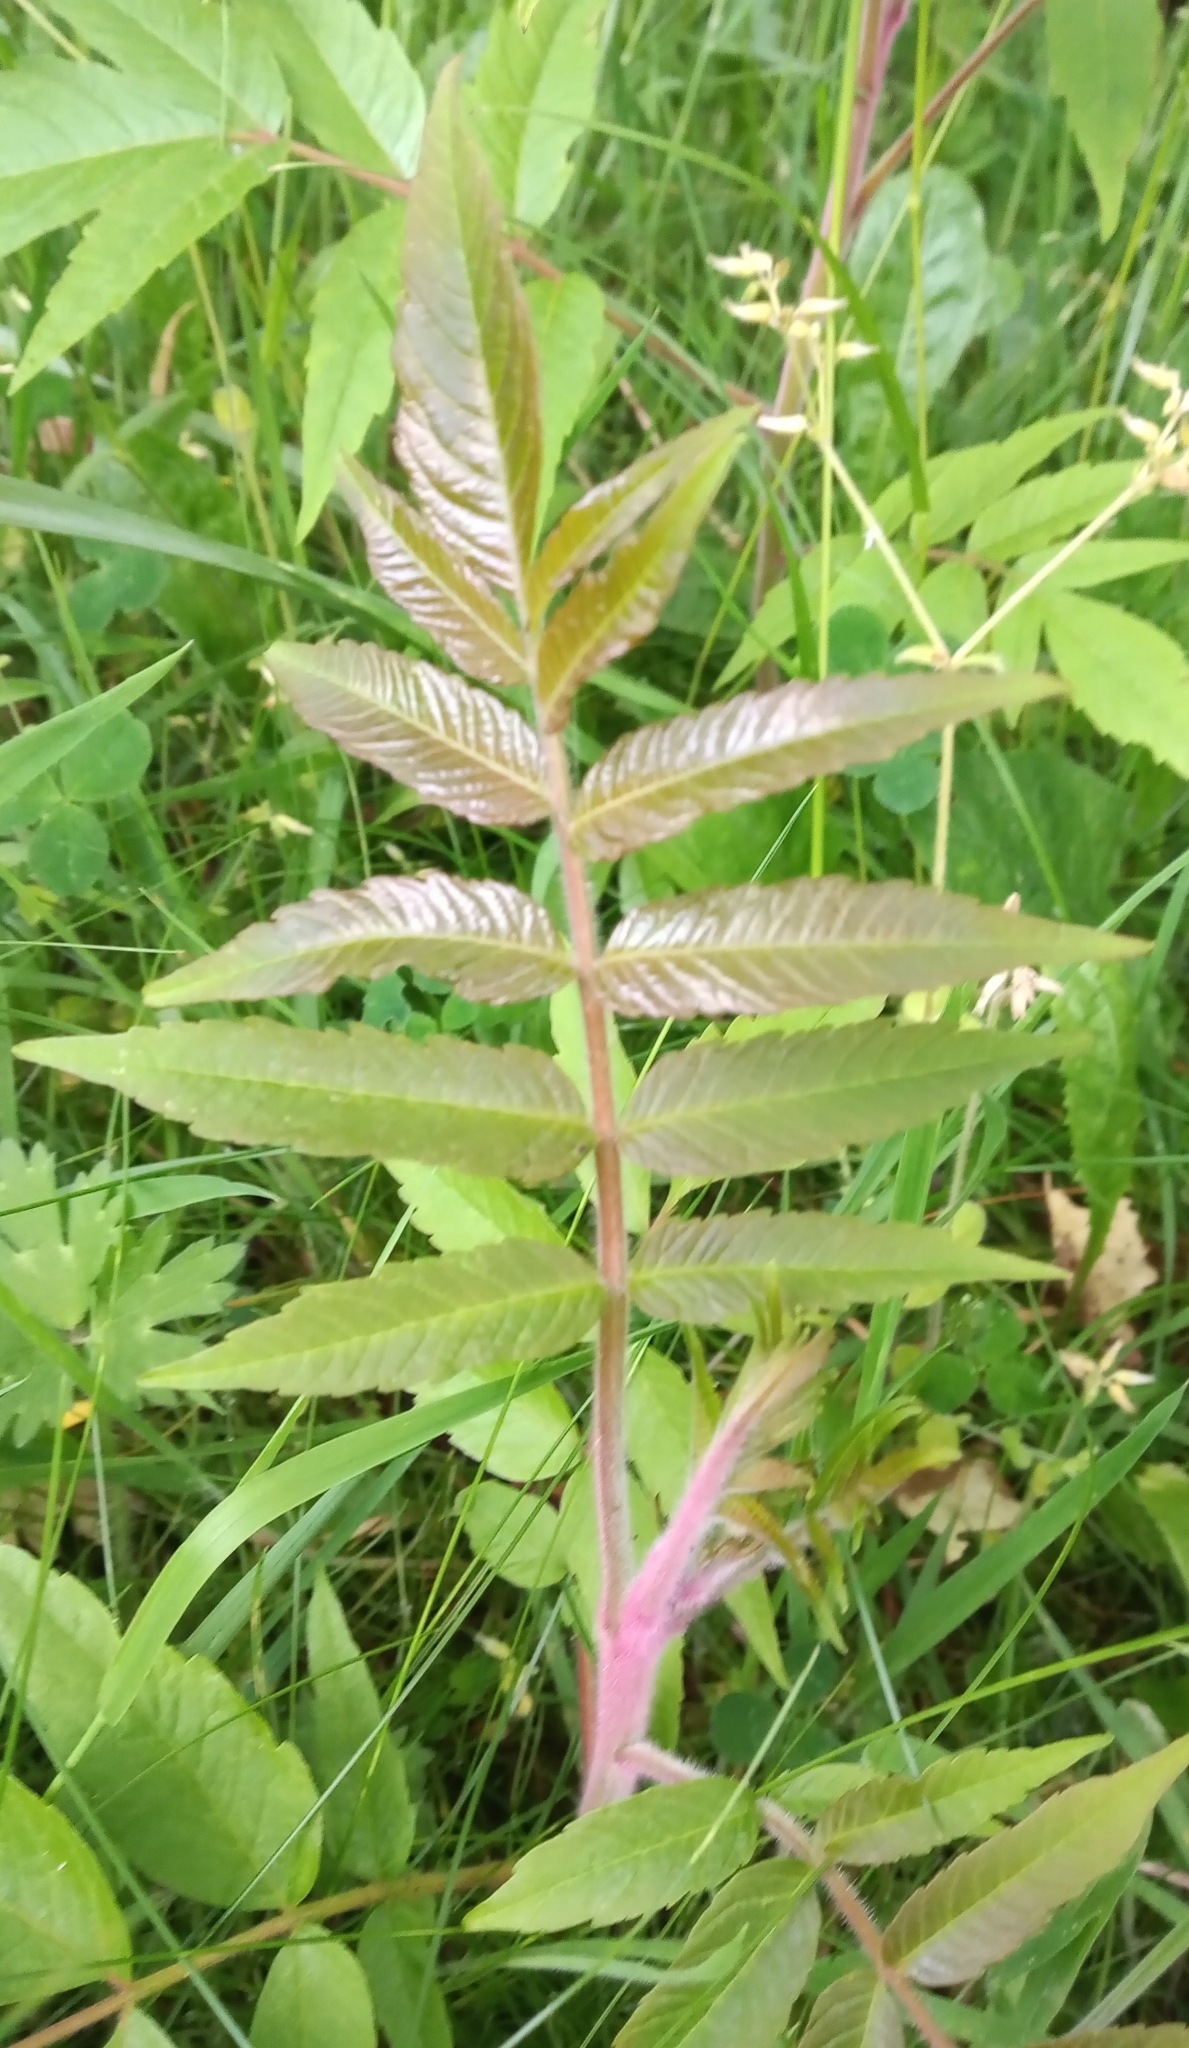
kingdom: Plantae
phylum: Tracheophyta
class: Magnoliopsida
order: Sapindales
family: Anacardiaceae
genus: Rhus
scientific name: Rhus typhina
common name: Staghorn sumac
